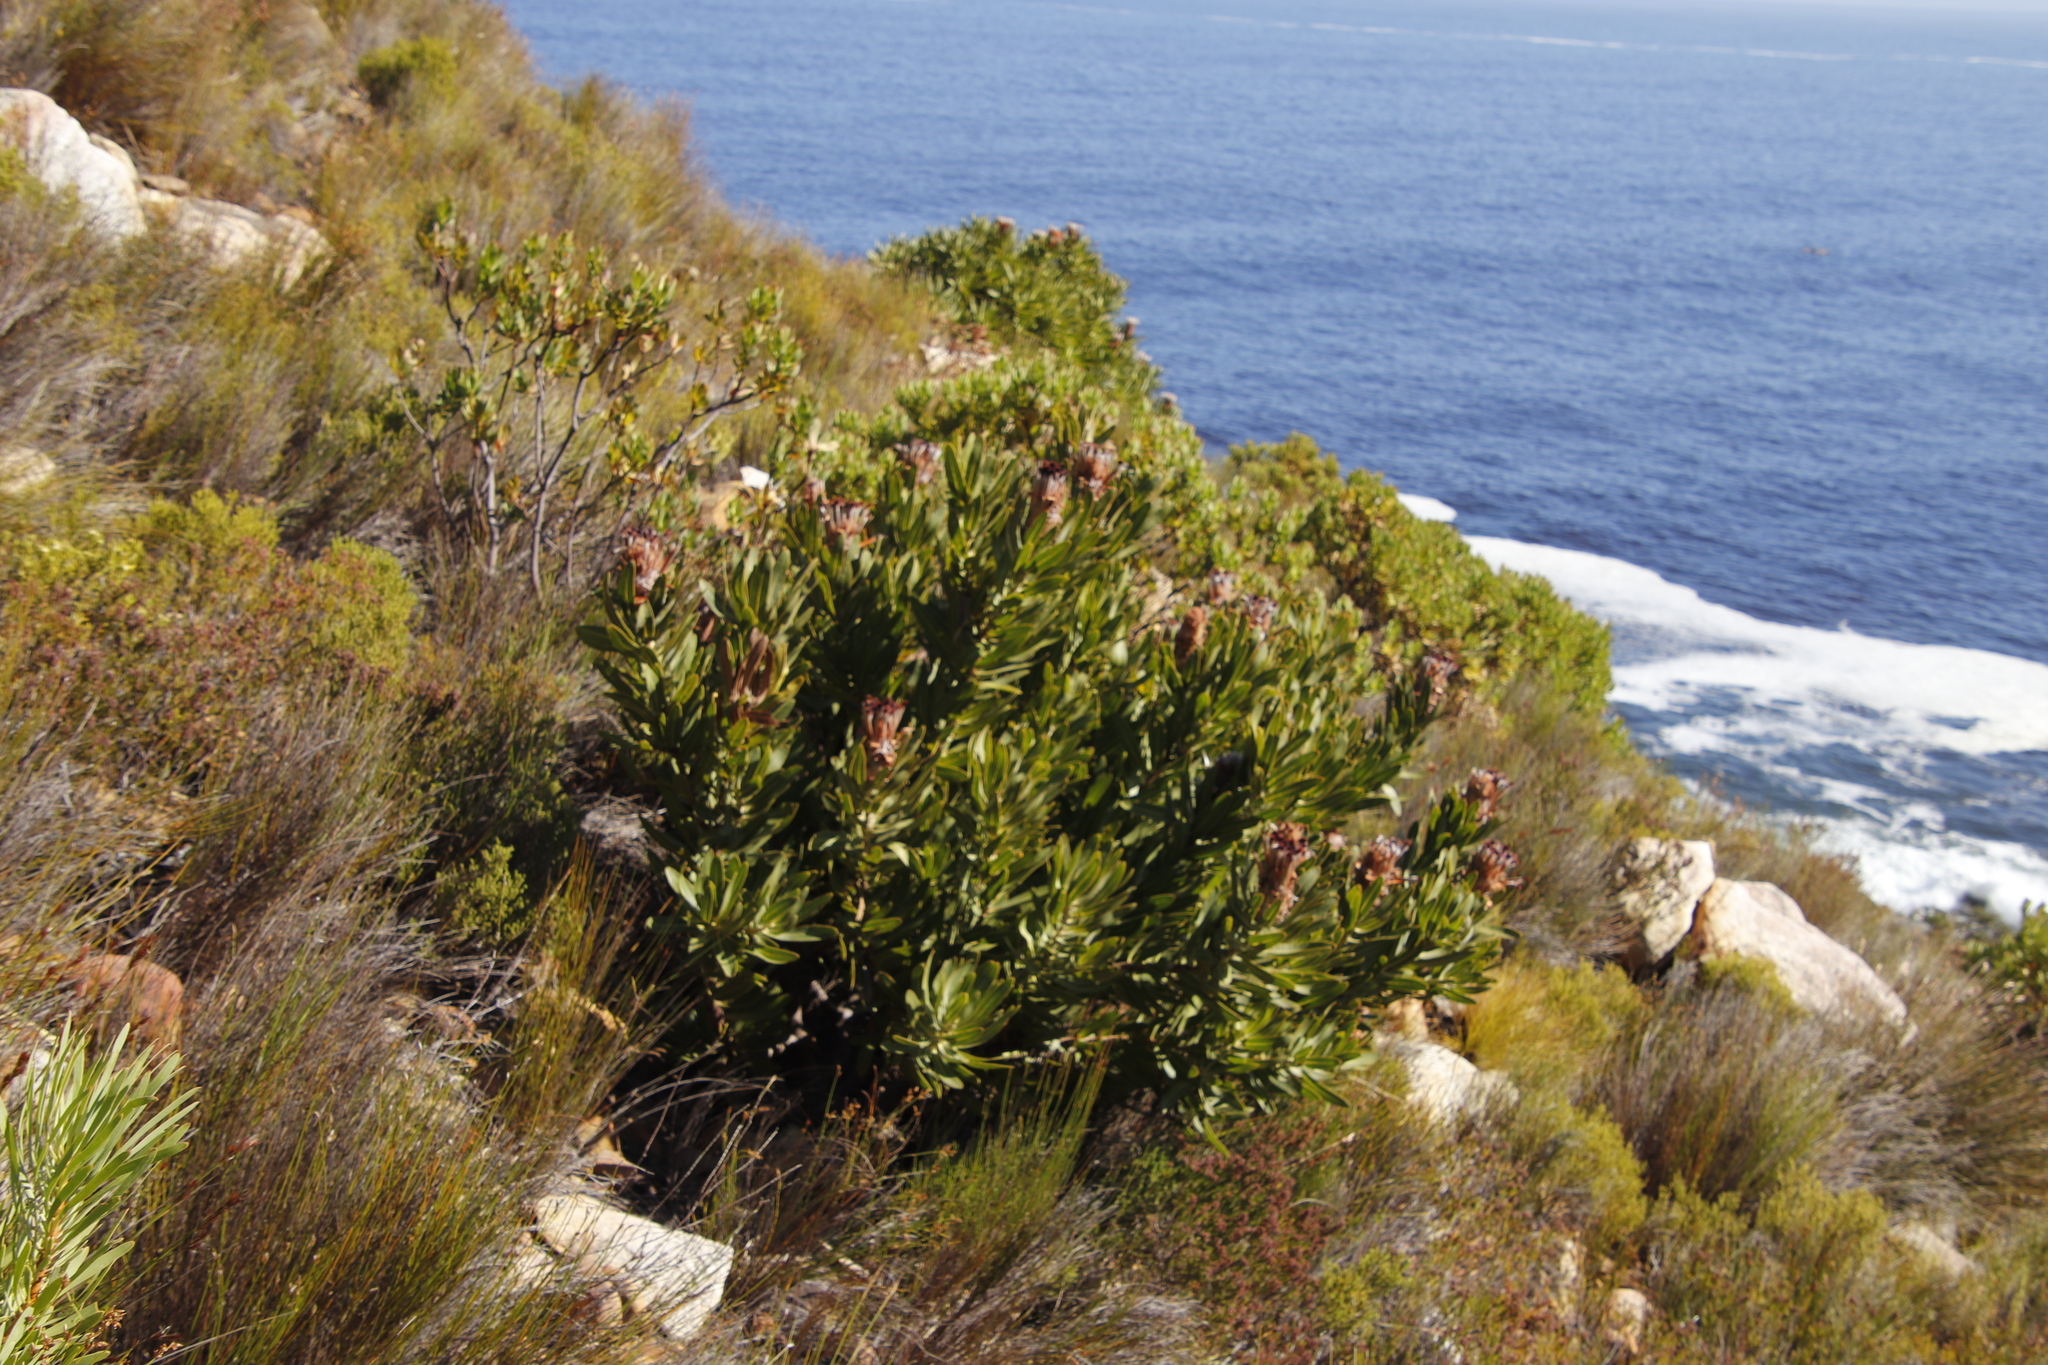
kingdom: Plantae
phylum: Tracheophyta
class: Magnoliopsida
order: Proteales
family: Proteaceae
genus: Protea
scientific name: Protea laurifolia
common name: Grey-leaf sugarbsh
